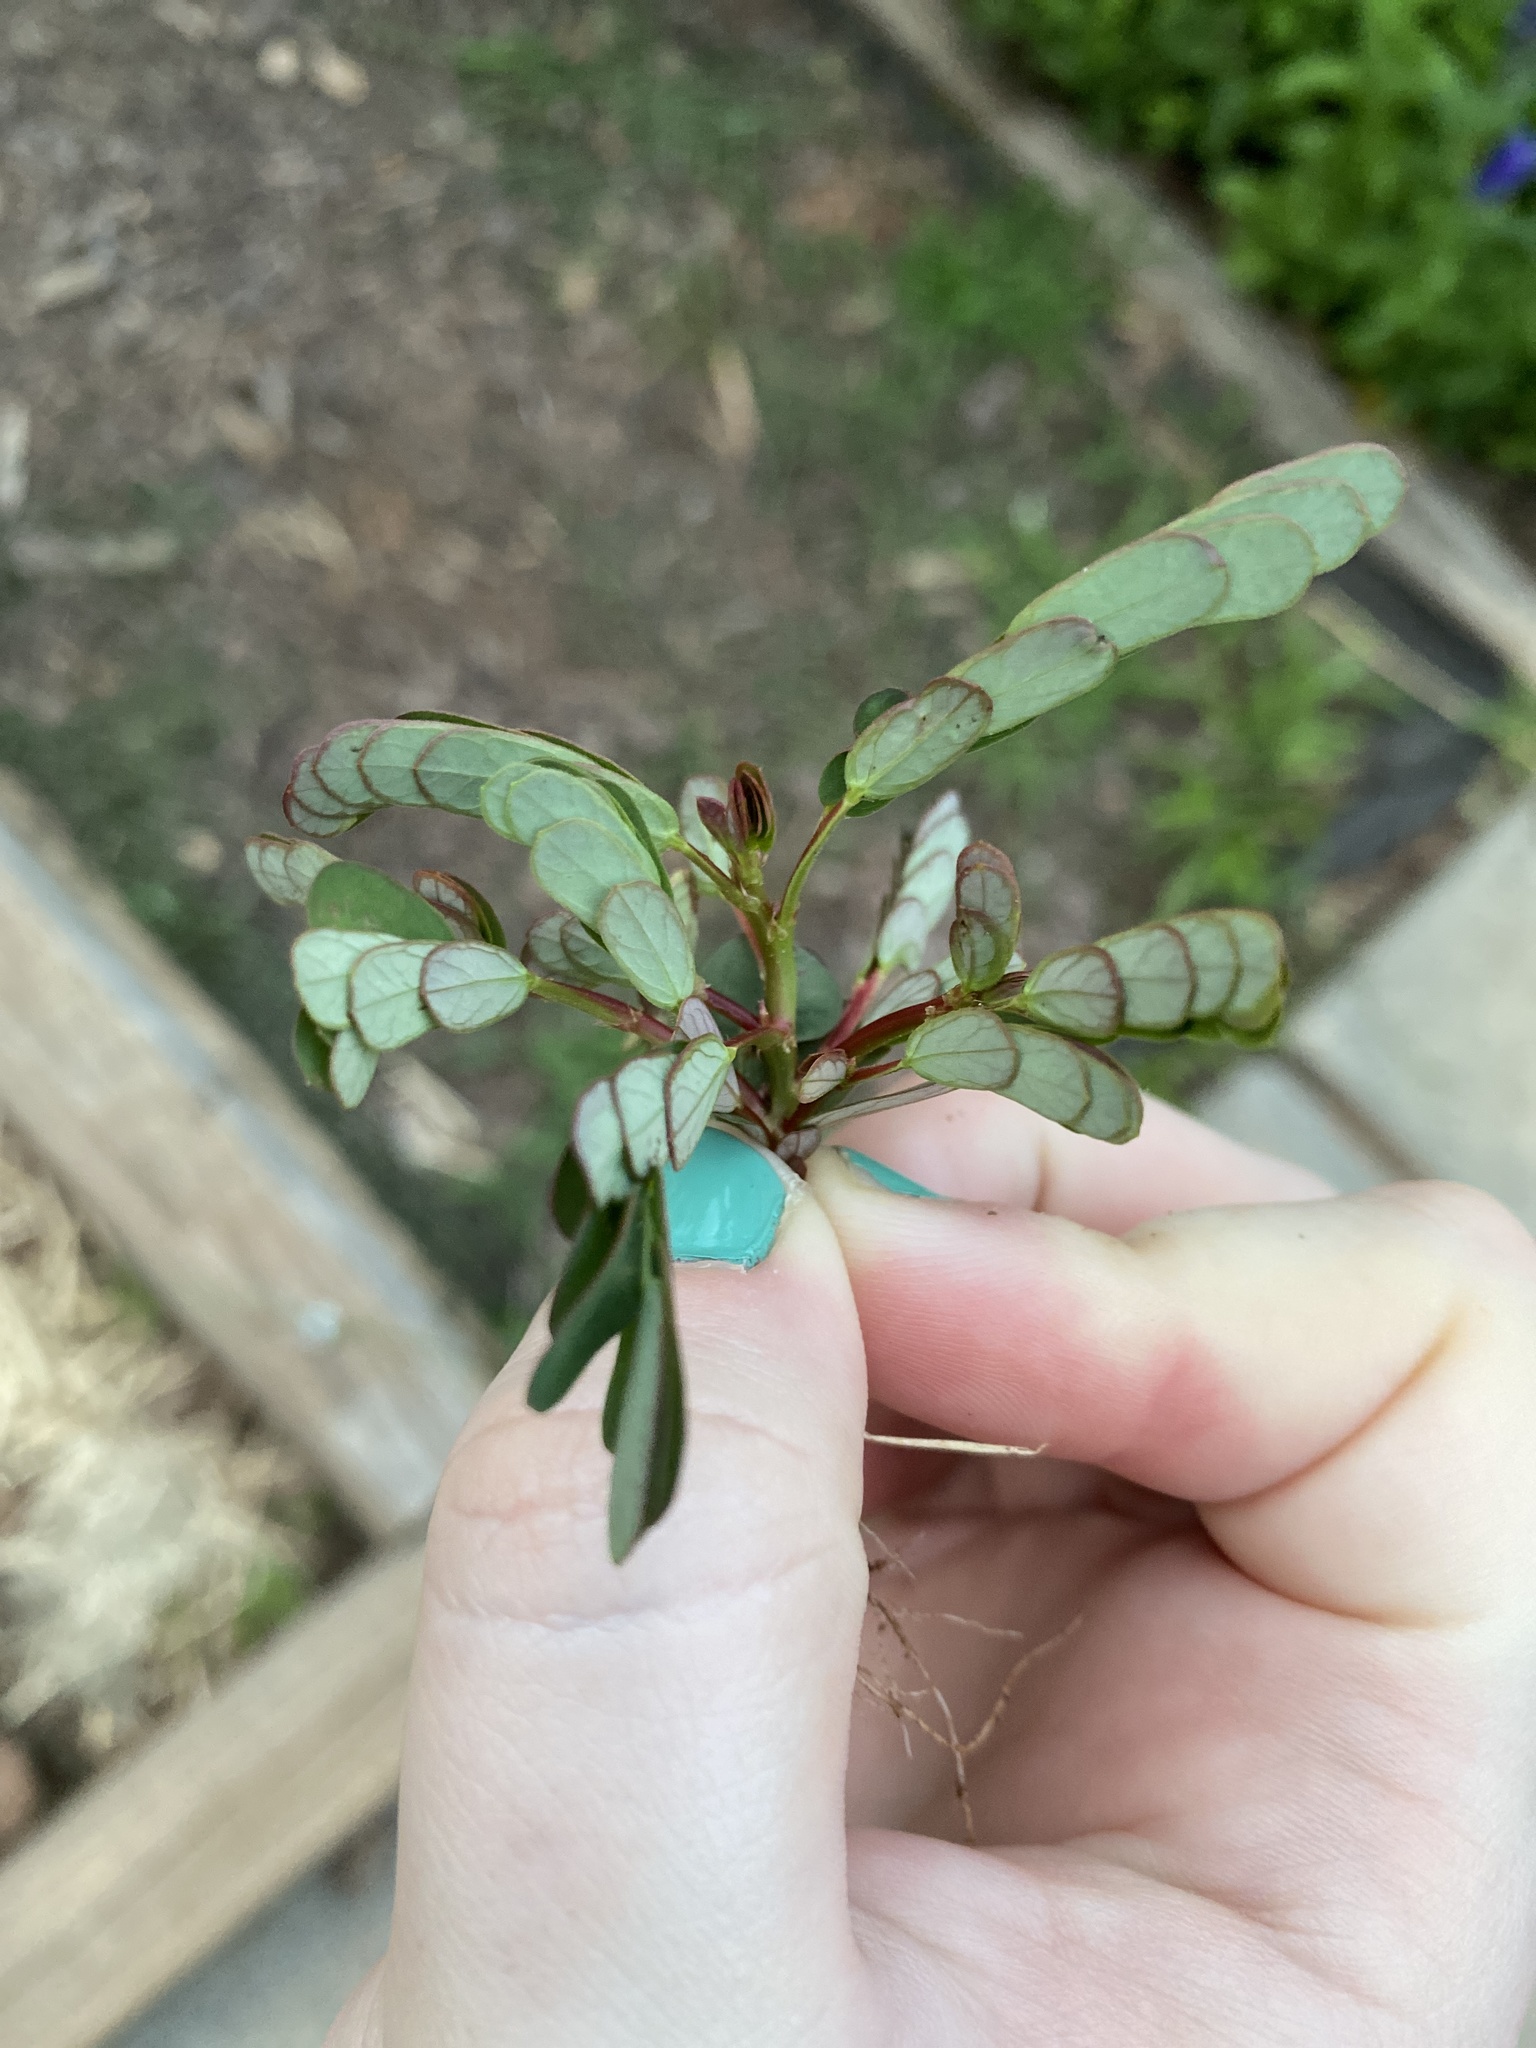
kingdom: Plantae
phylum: Tracheophyta
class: Magnoliopsida
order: Malpighiales
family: Phyllanthaceae
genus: Phyllanthus
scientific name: Phyllanthus urinaria
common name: Chamber bitter
